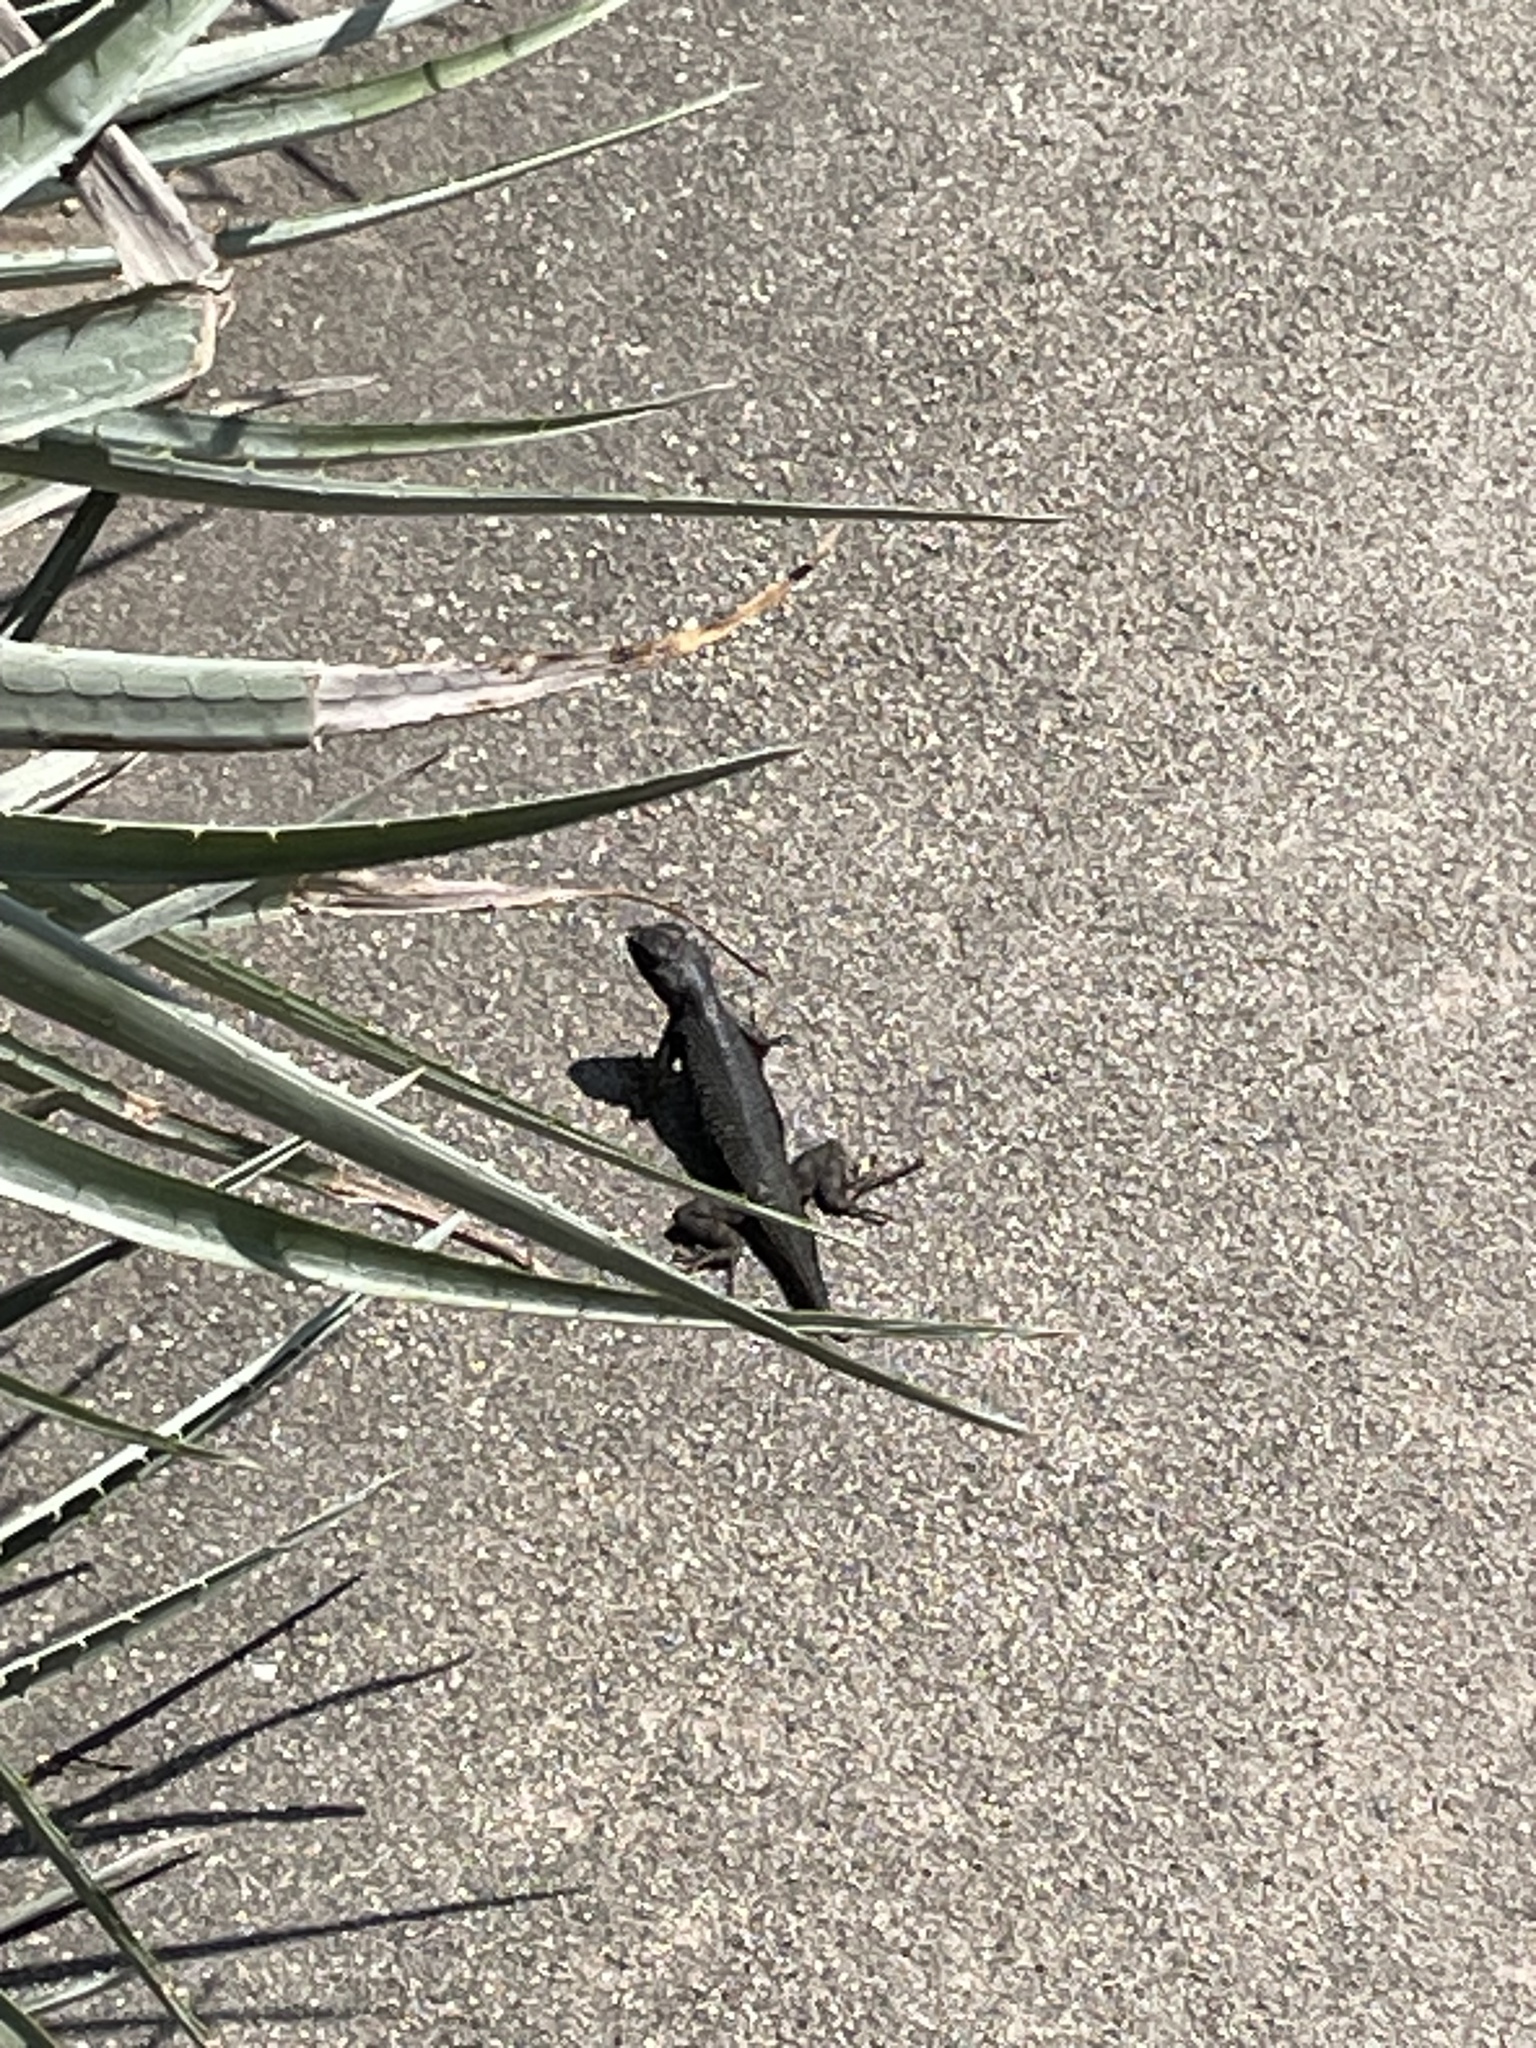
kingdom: Animalia
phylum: Chordata
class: Squamata
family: Phrynosomatidae
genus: Sceloporus
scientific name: Sceloporus occidentalis
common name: Western fence lizard
